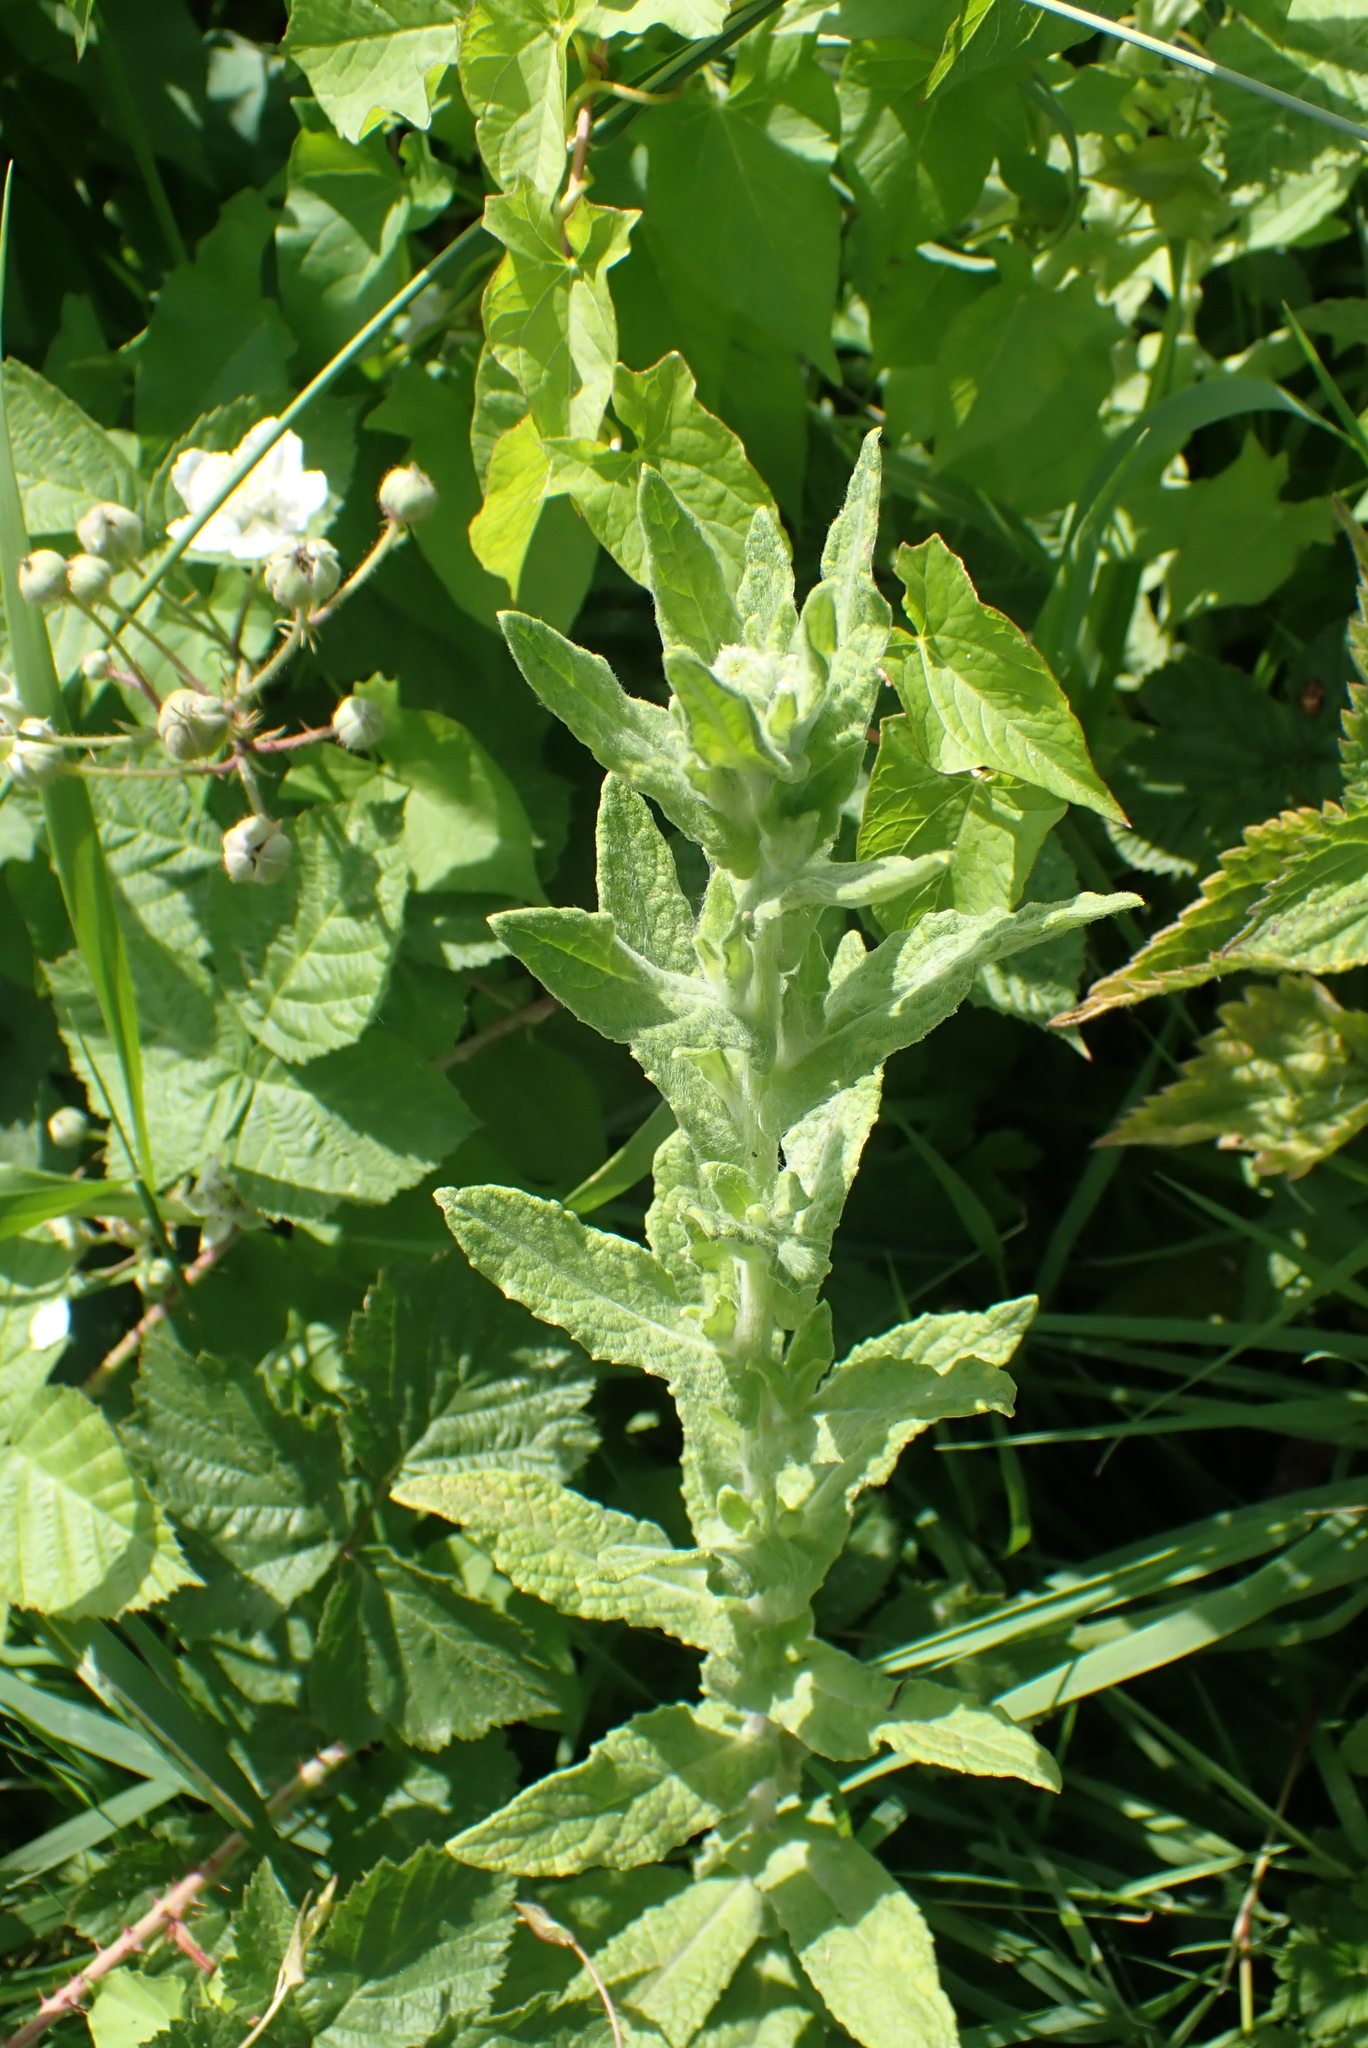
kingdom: Plantae
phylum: Tracheophyta
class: Magnoliopsida
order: Asterales
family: Asteraceae
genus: Pulicaria
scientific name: Pulicaria dysenterica
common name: Common fleabane
